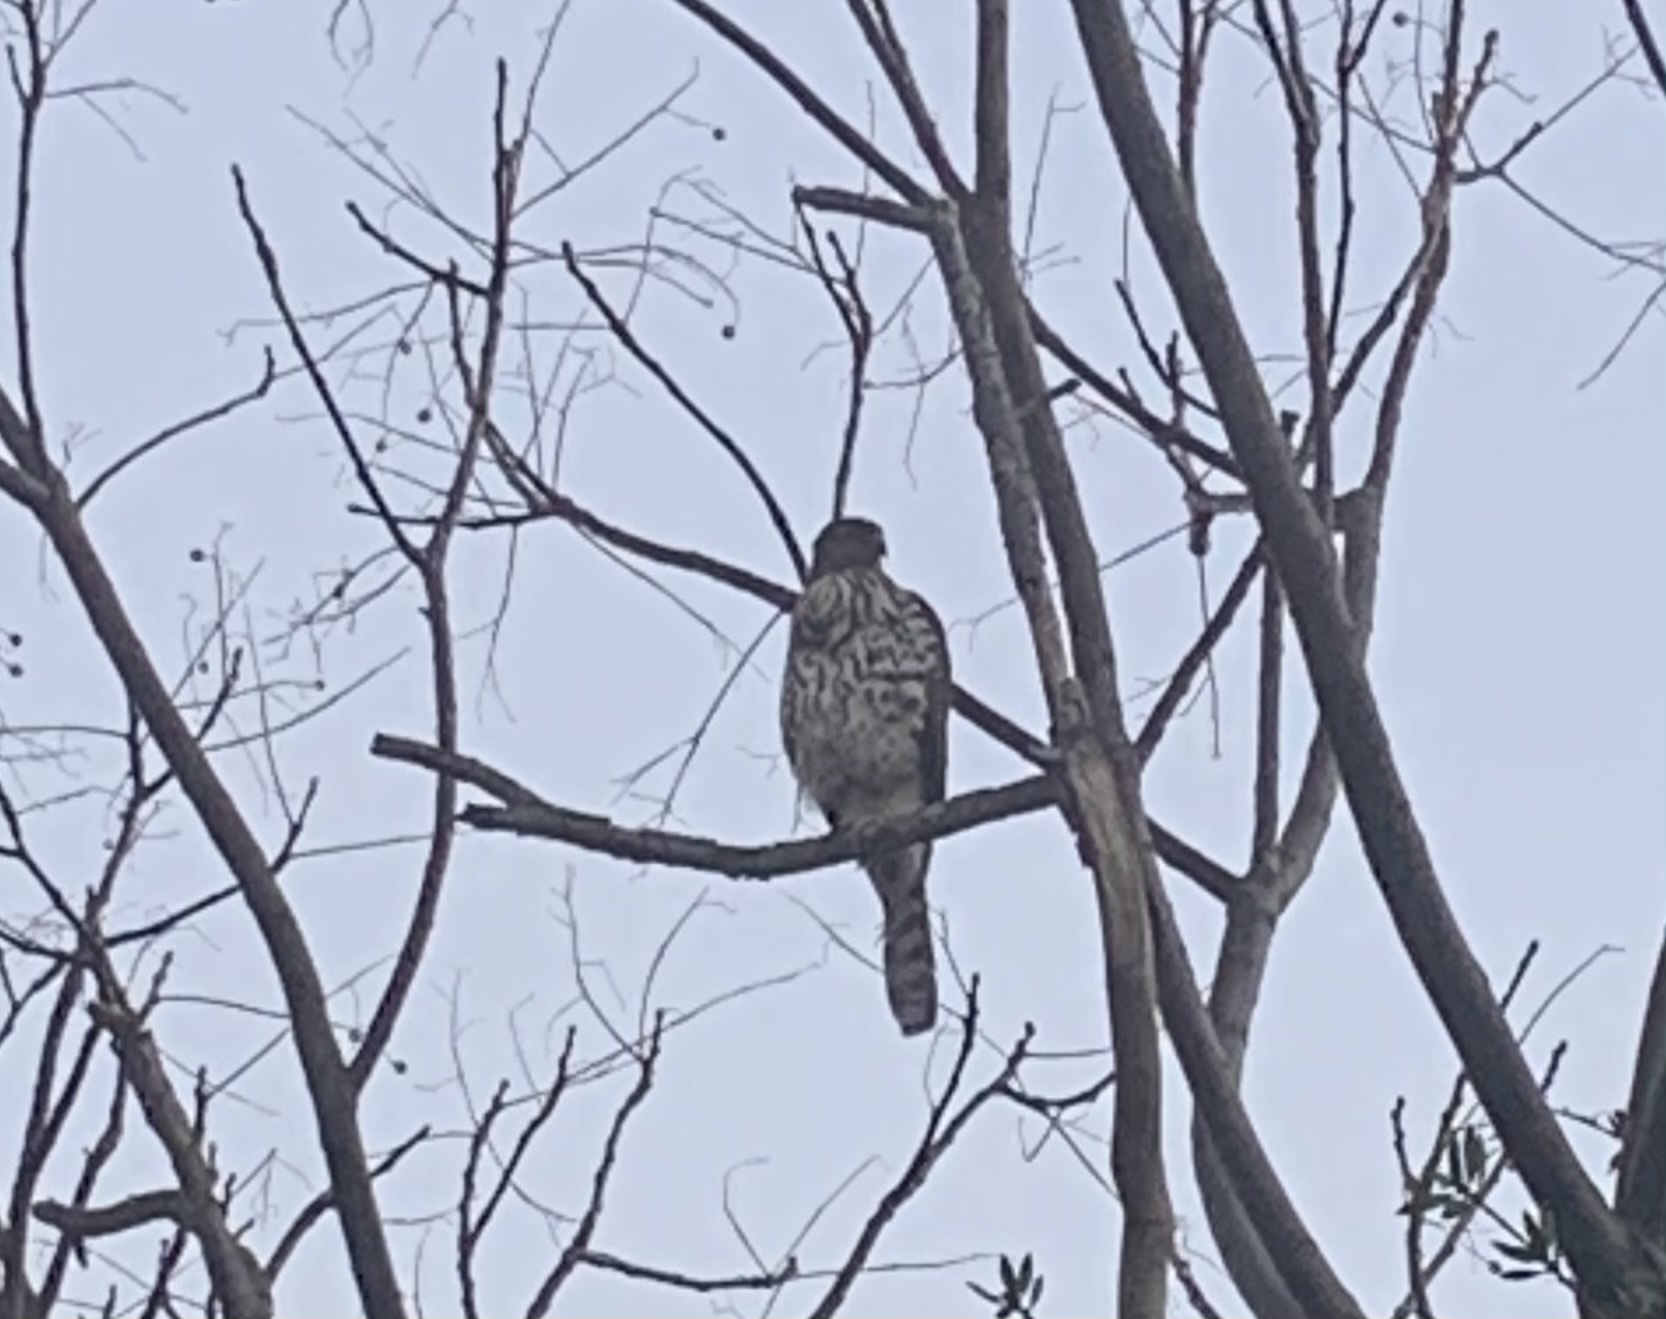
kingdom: Animalia
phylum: Chordata
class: Aves
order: Accipitriformes
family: Accipitridae
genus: Accipiter
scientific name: Accipiter cooperii
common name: Cooper's hawk
